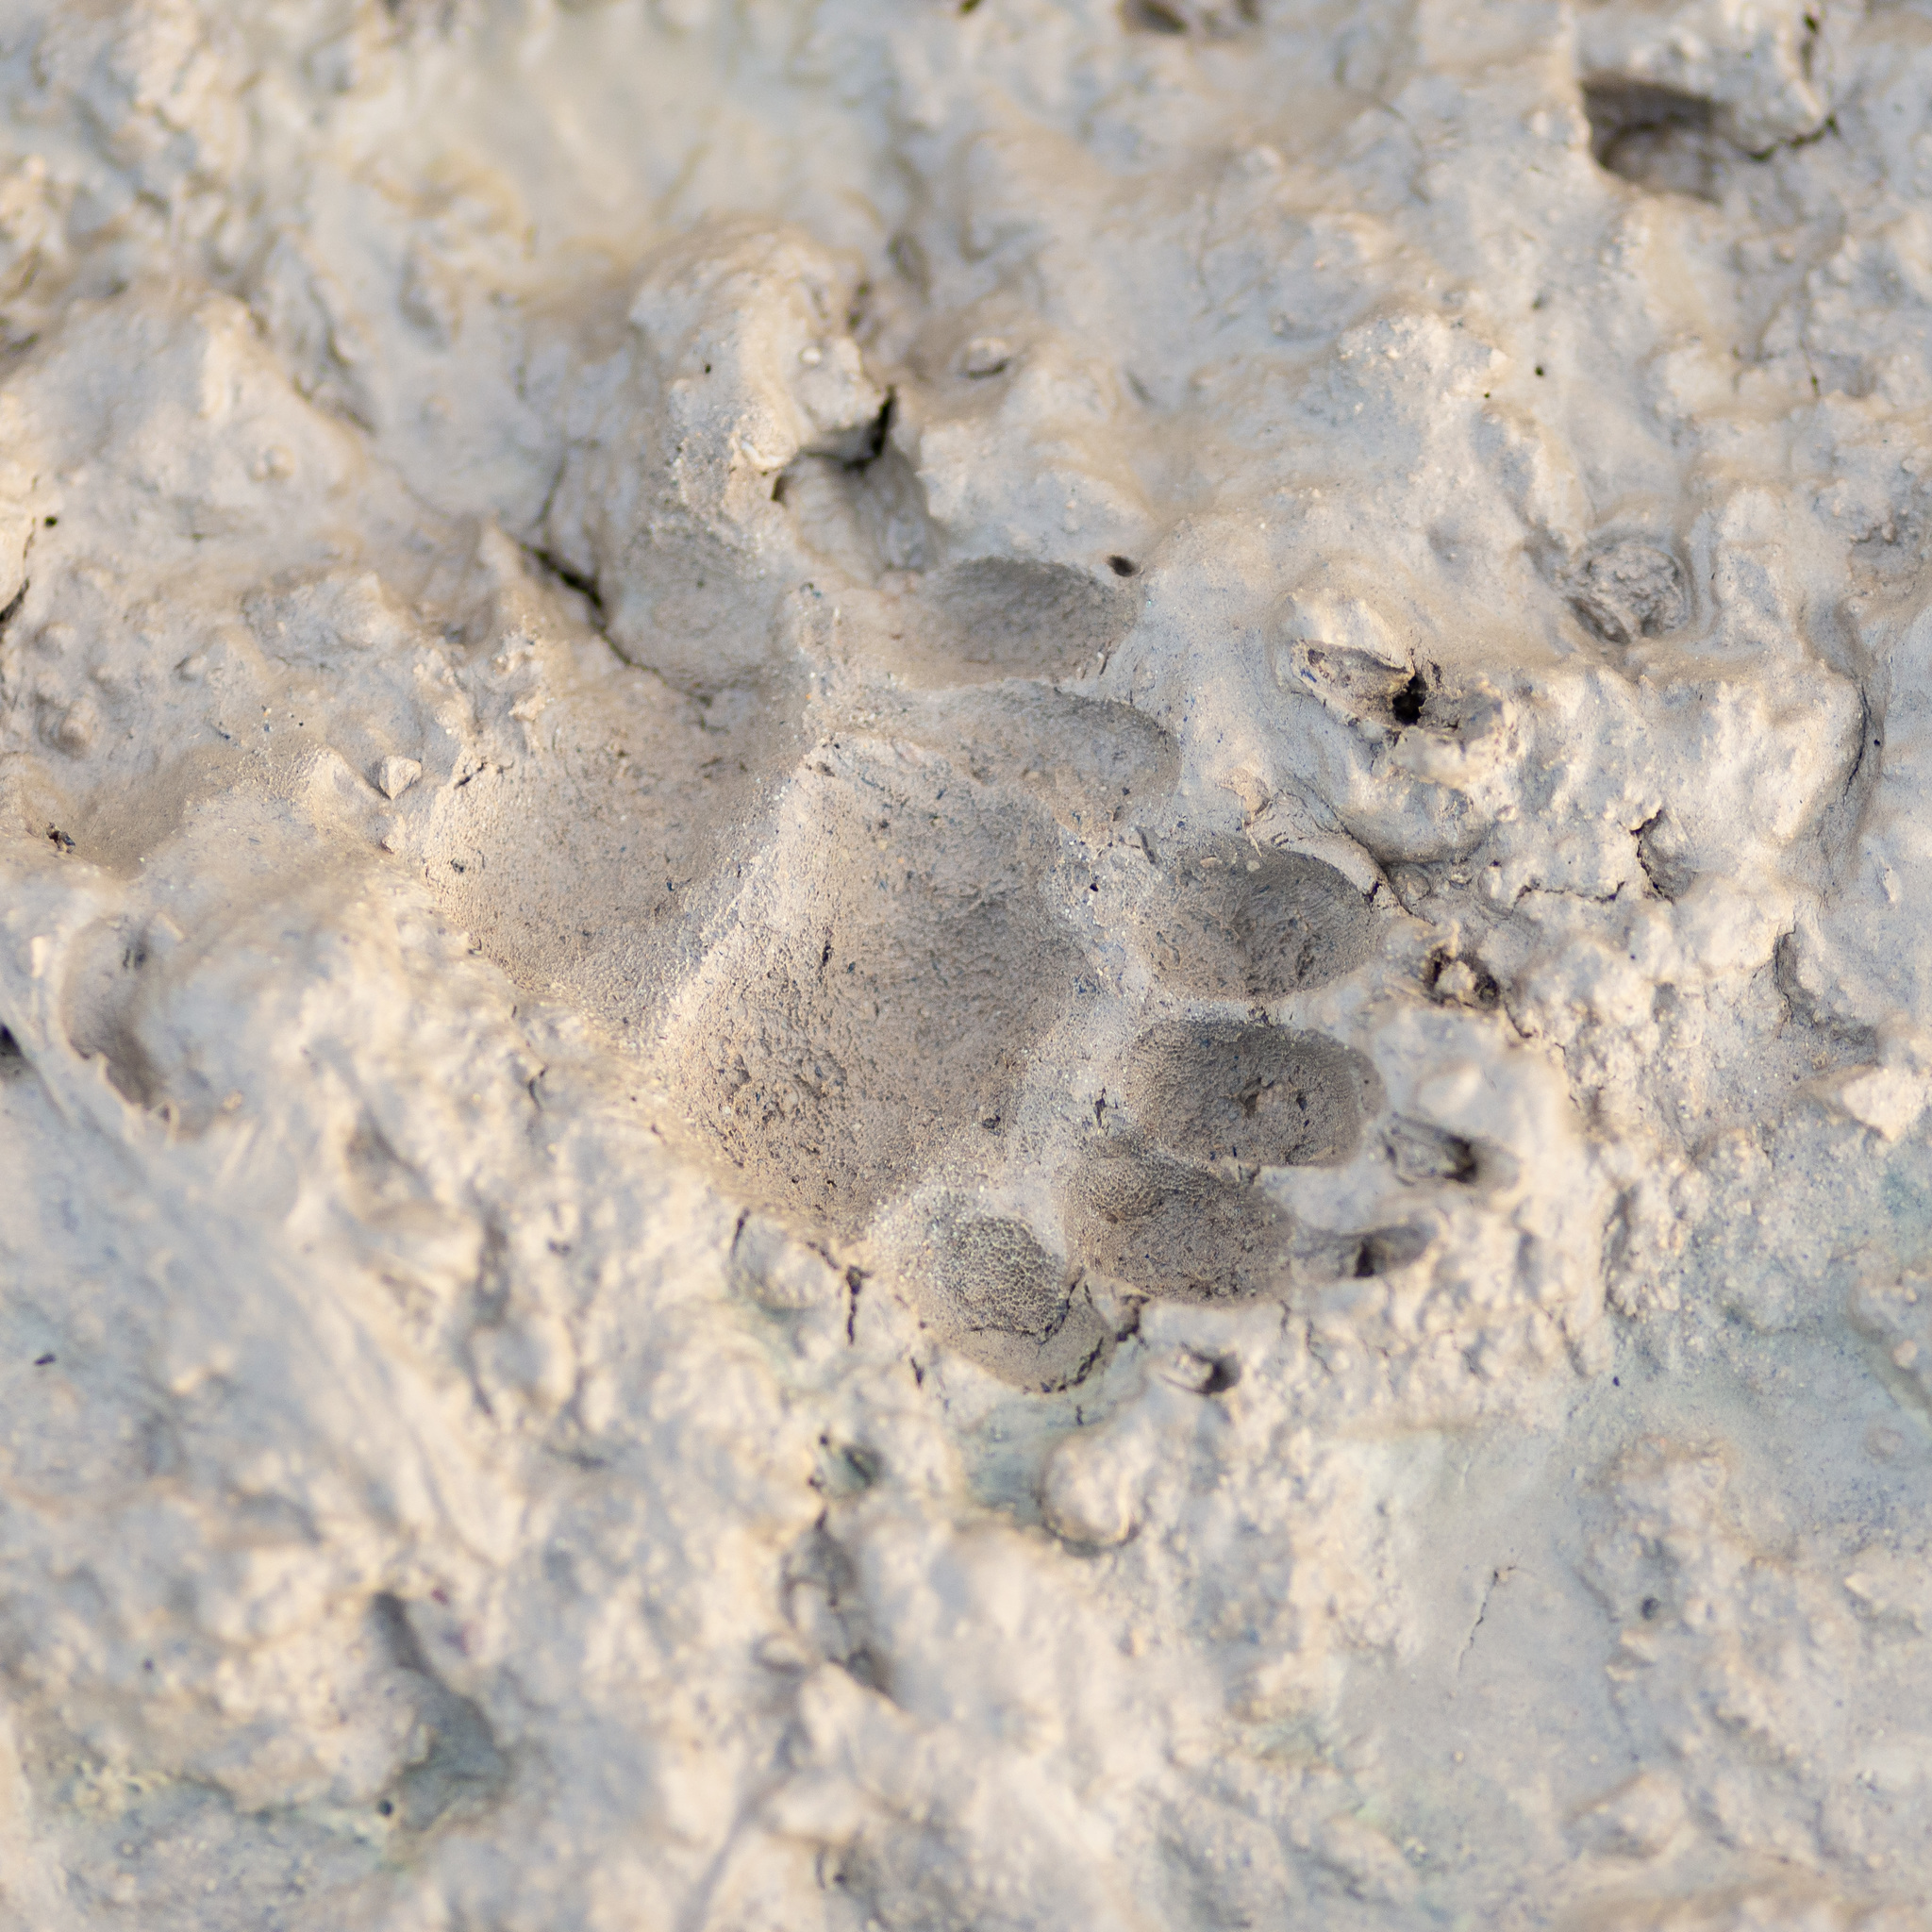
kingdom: Animalia
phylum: Chordata
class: Mammalia
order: Carnivora
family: Mustelidae
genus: Meles
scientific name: Meles meles
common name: Eurasian badger
